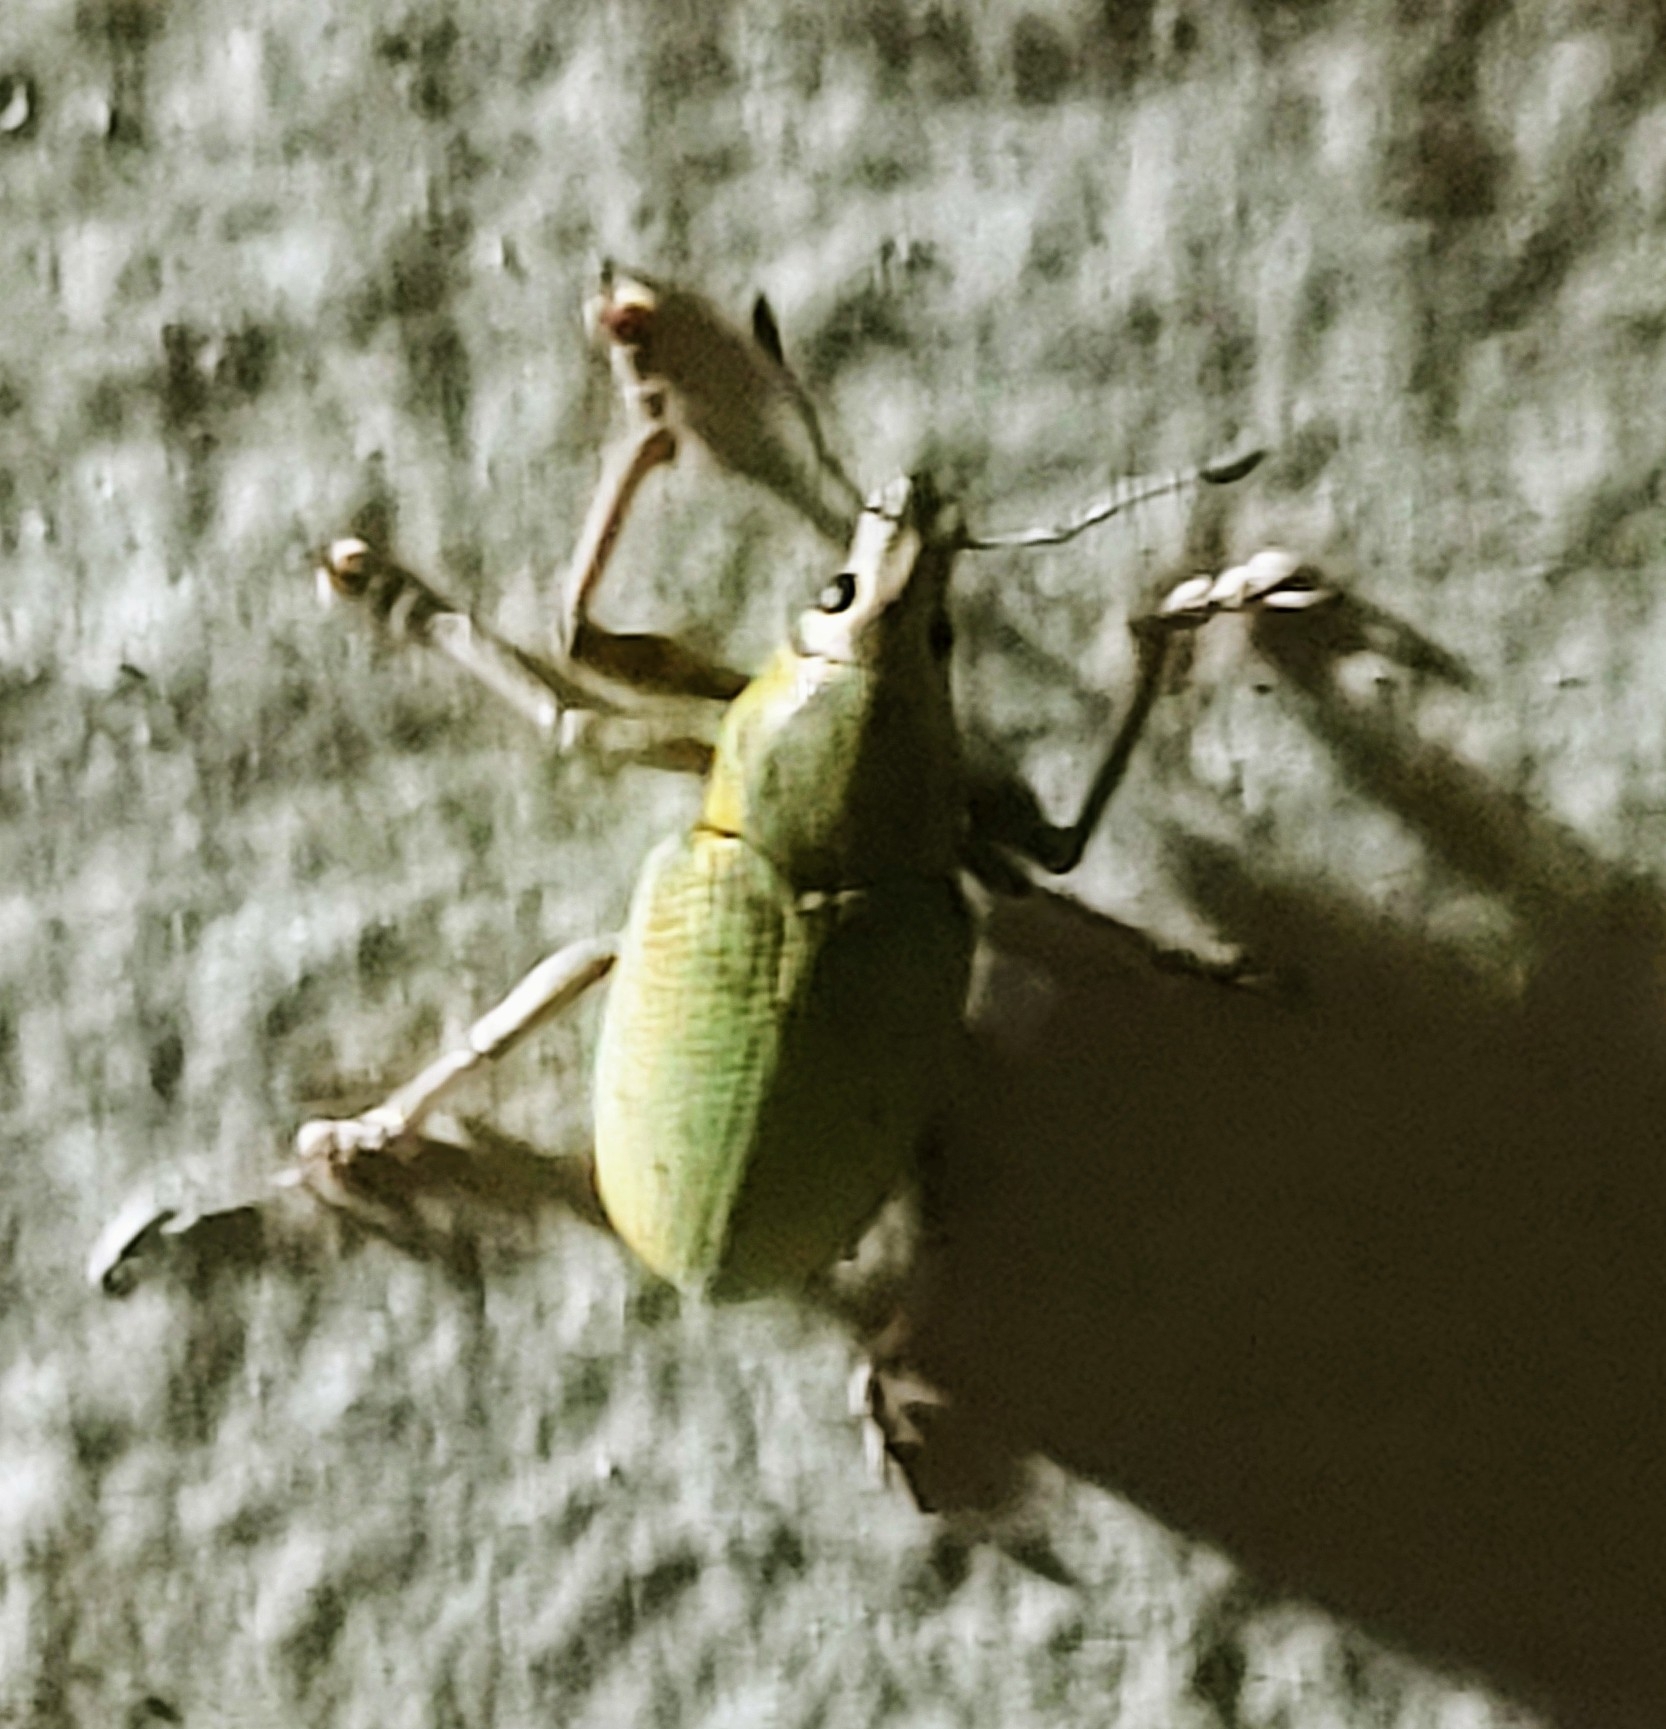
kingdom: Animalia
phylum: Arthropoda
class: Insecta
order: Coleoptera
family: Curculionidae
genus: Pachnaeus
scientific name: Pachnaeus litus
